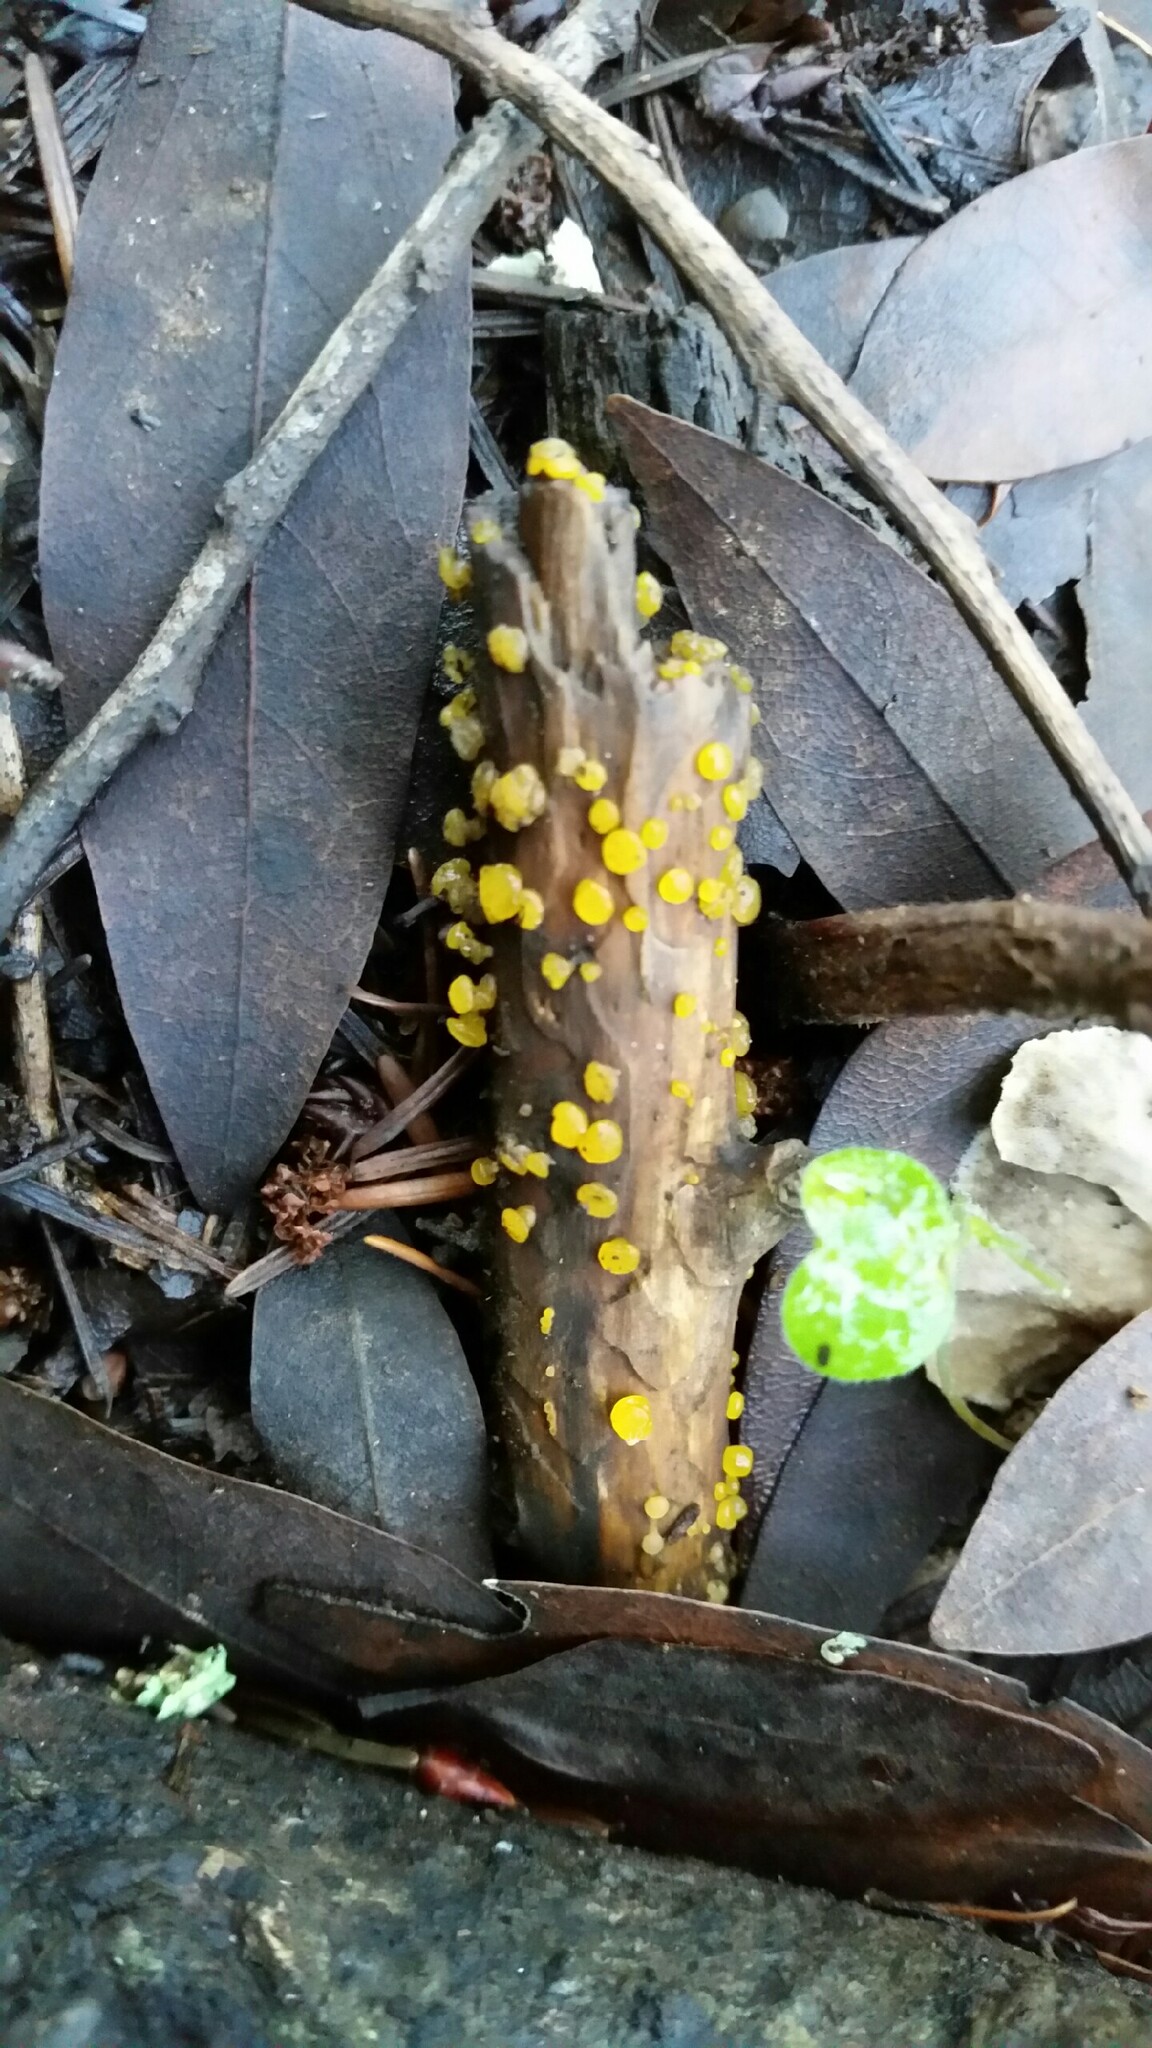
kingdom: Fungi
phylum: Basidiomycota
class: Dacrymycetes
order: Dacrymycetales
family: Dacrymycetaceae
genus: Dacrymyces
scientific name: Dacrymyces stillatus
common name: Common jelly spot
